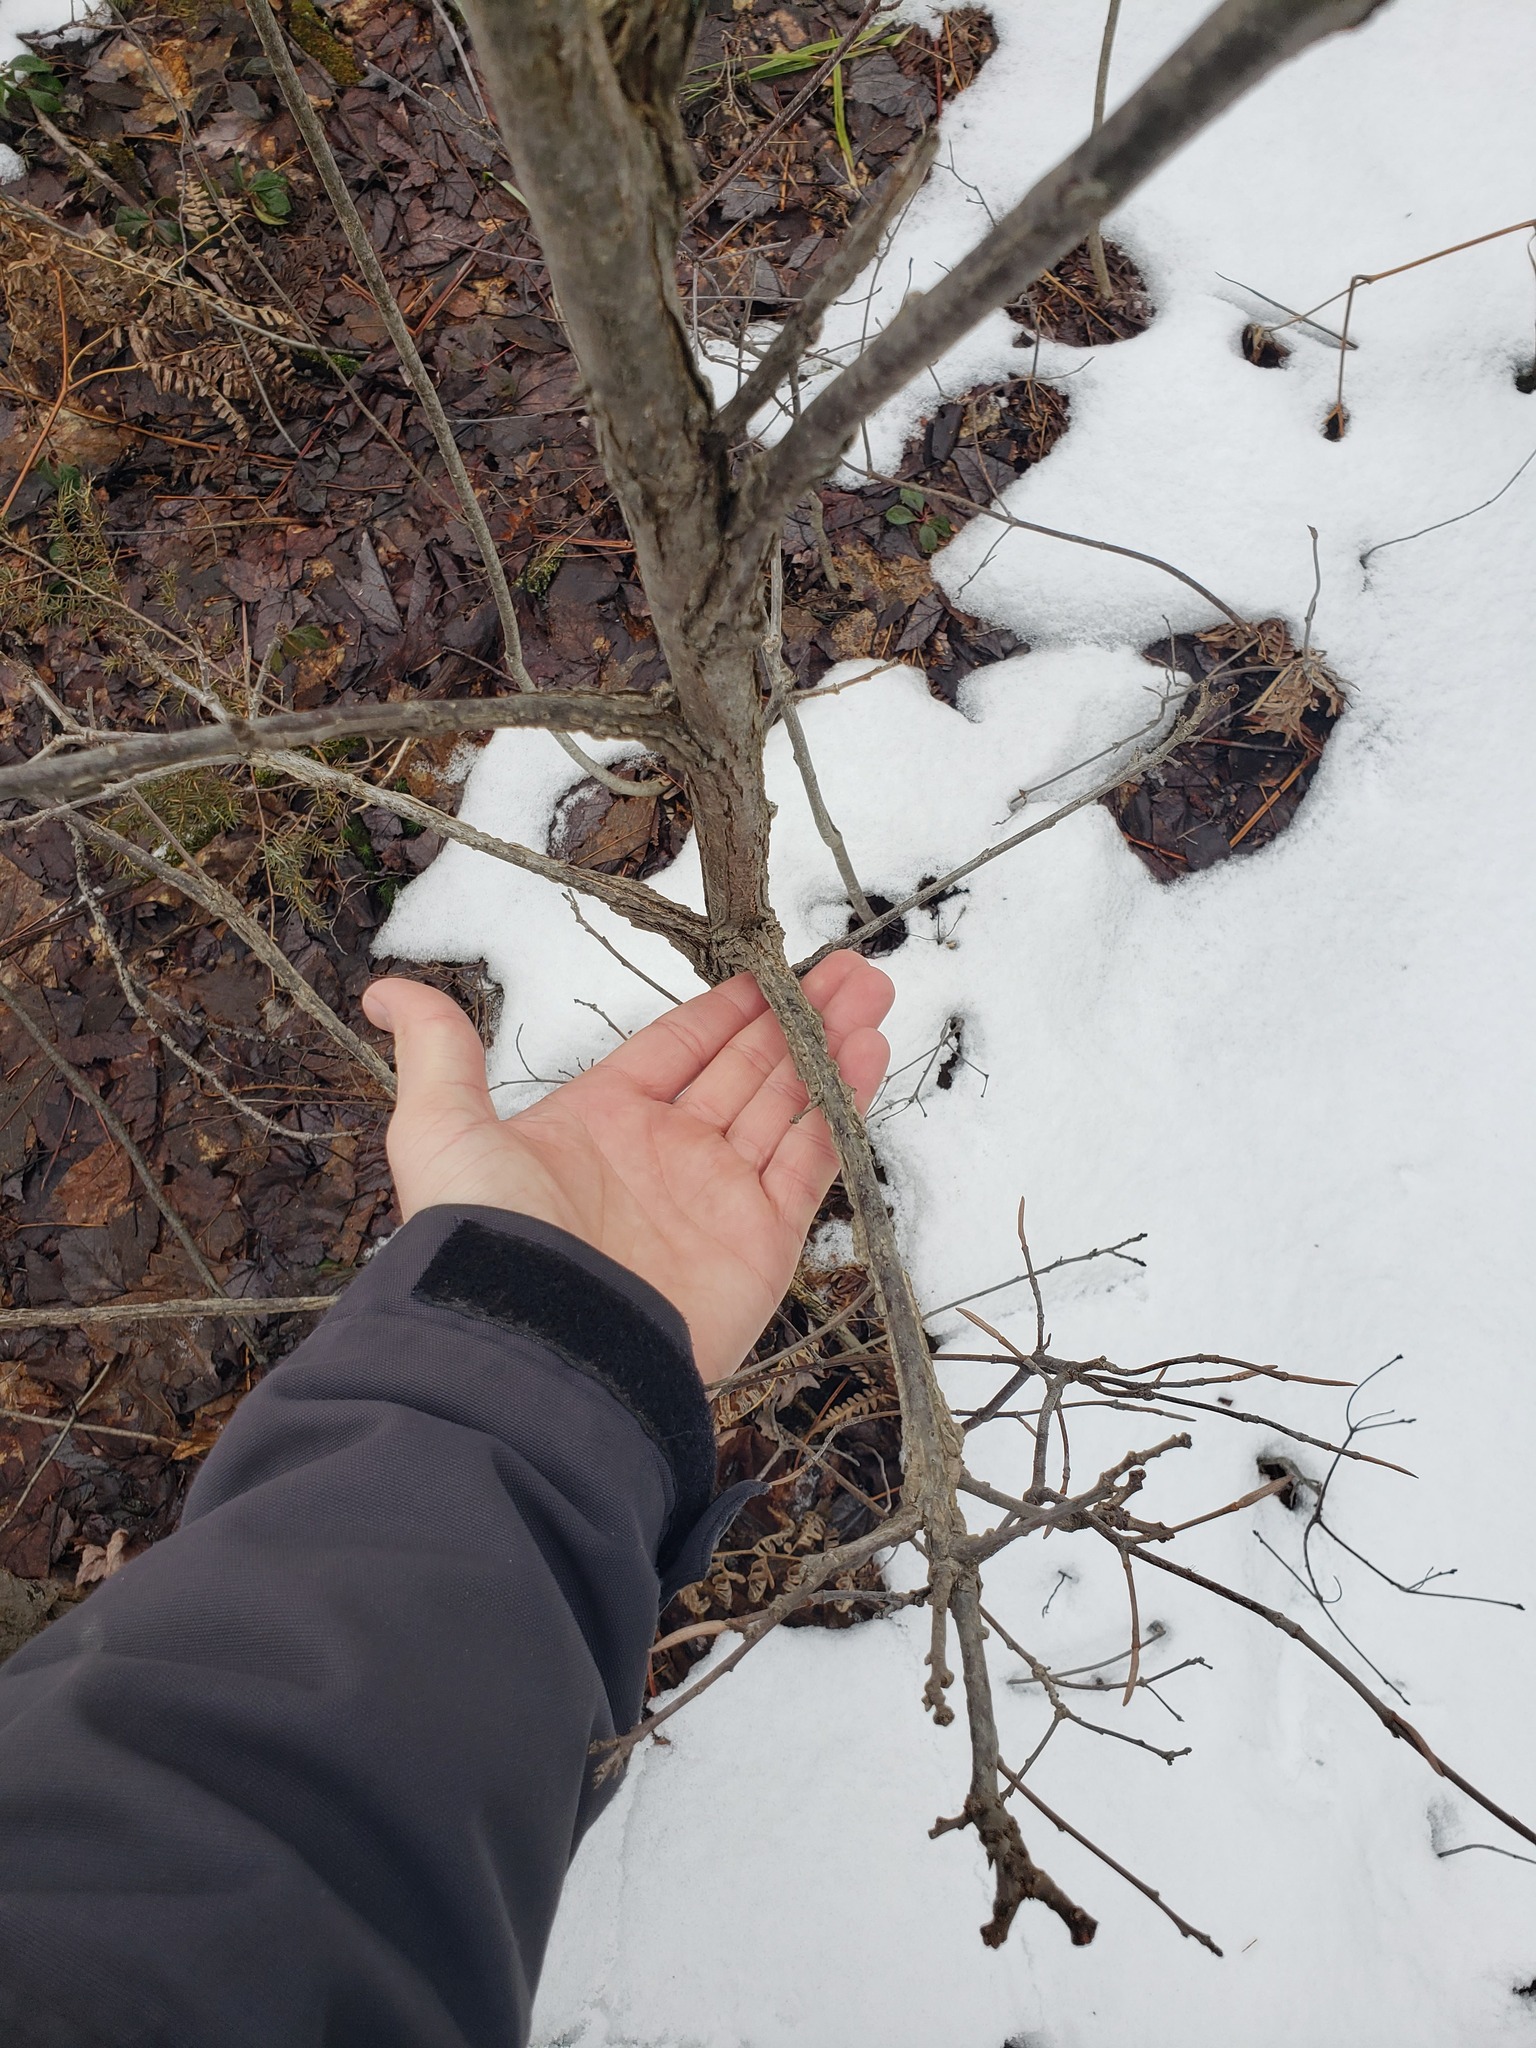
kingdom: Plantae
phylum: Tracheophyta
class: Magnoliopsida
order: Fagales
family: Fagaceae
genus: Quercus
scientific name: Quercus macrocarpa
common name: Bur oak
